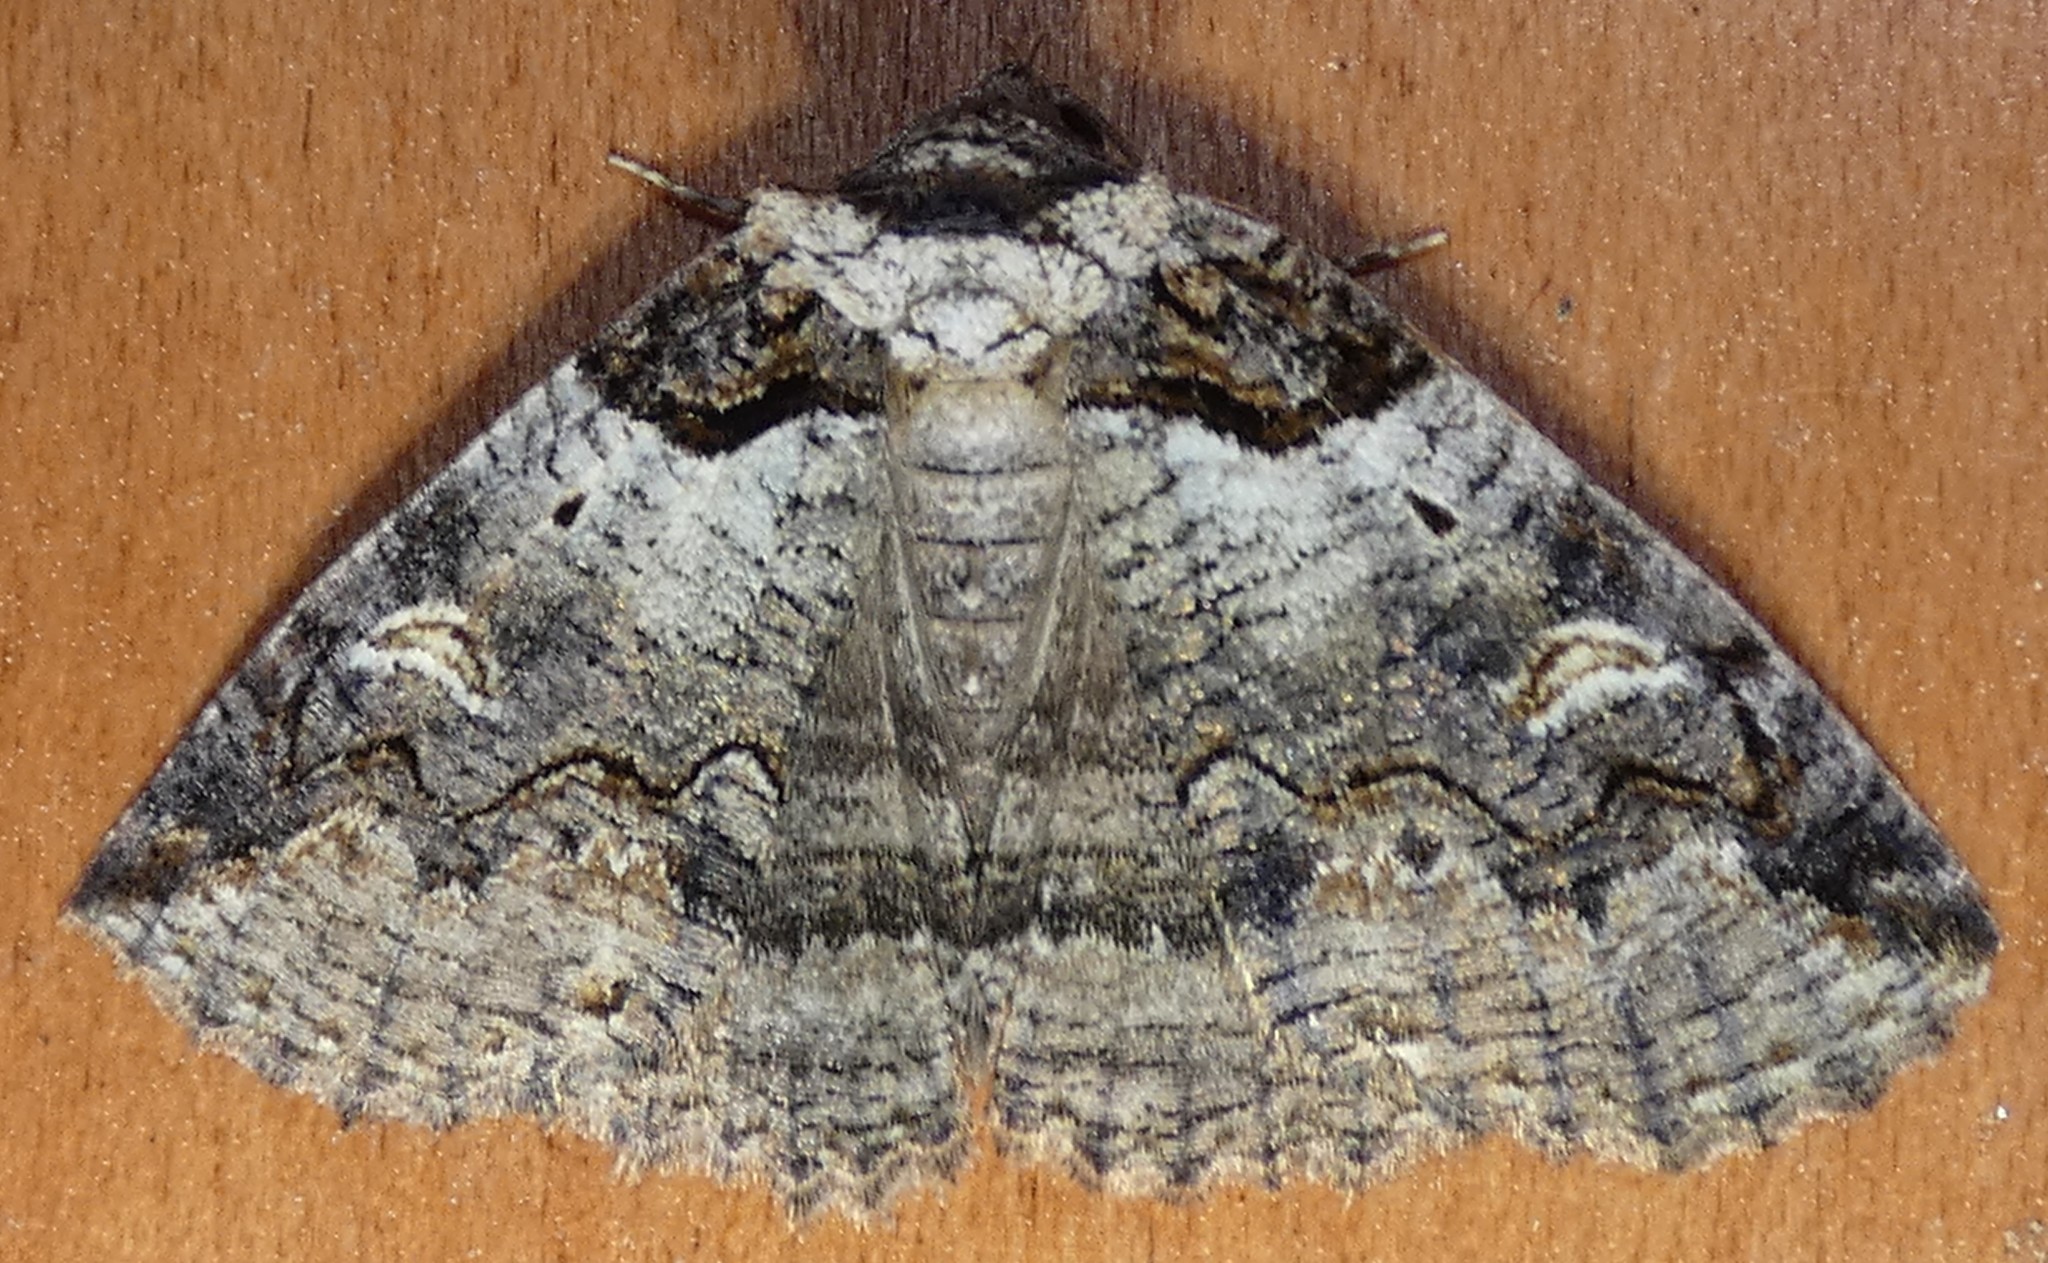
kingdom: Animalia
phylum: Arthropoda
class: Insecta
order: Lepidoptera
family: Erebidae
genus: Zale
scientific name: Zale intenta
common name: Intent zale moth
